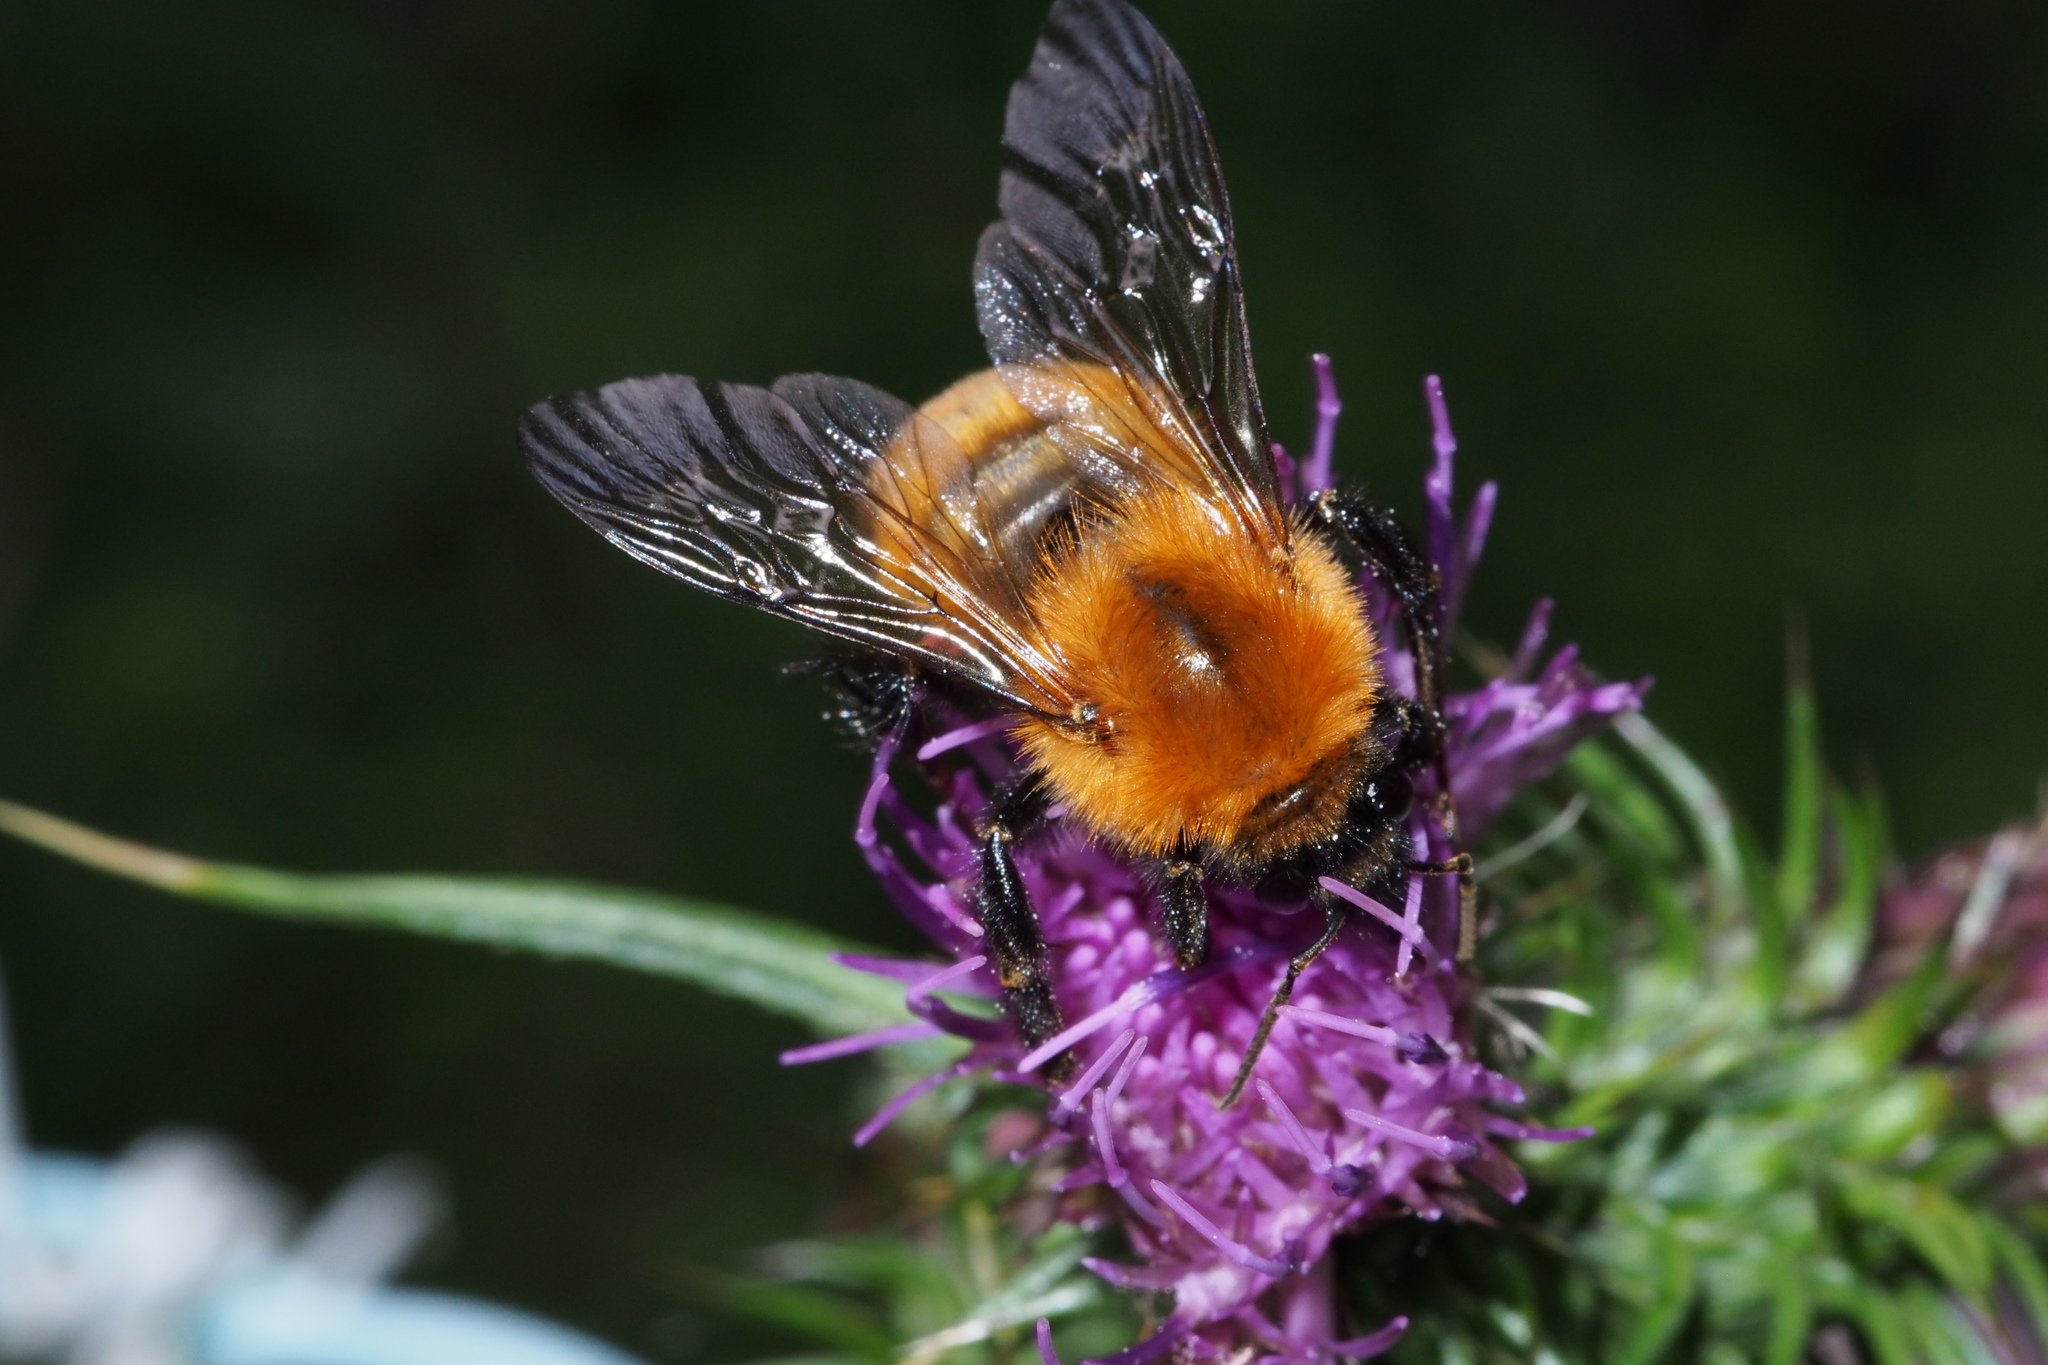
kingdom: Animalia
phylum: Arthropoda
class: Insecta
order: Hymenoptera
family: Apidae
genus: Bombus
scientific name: Bombus diversus
